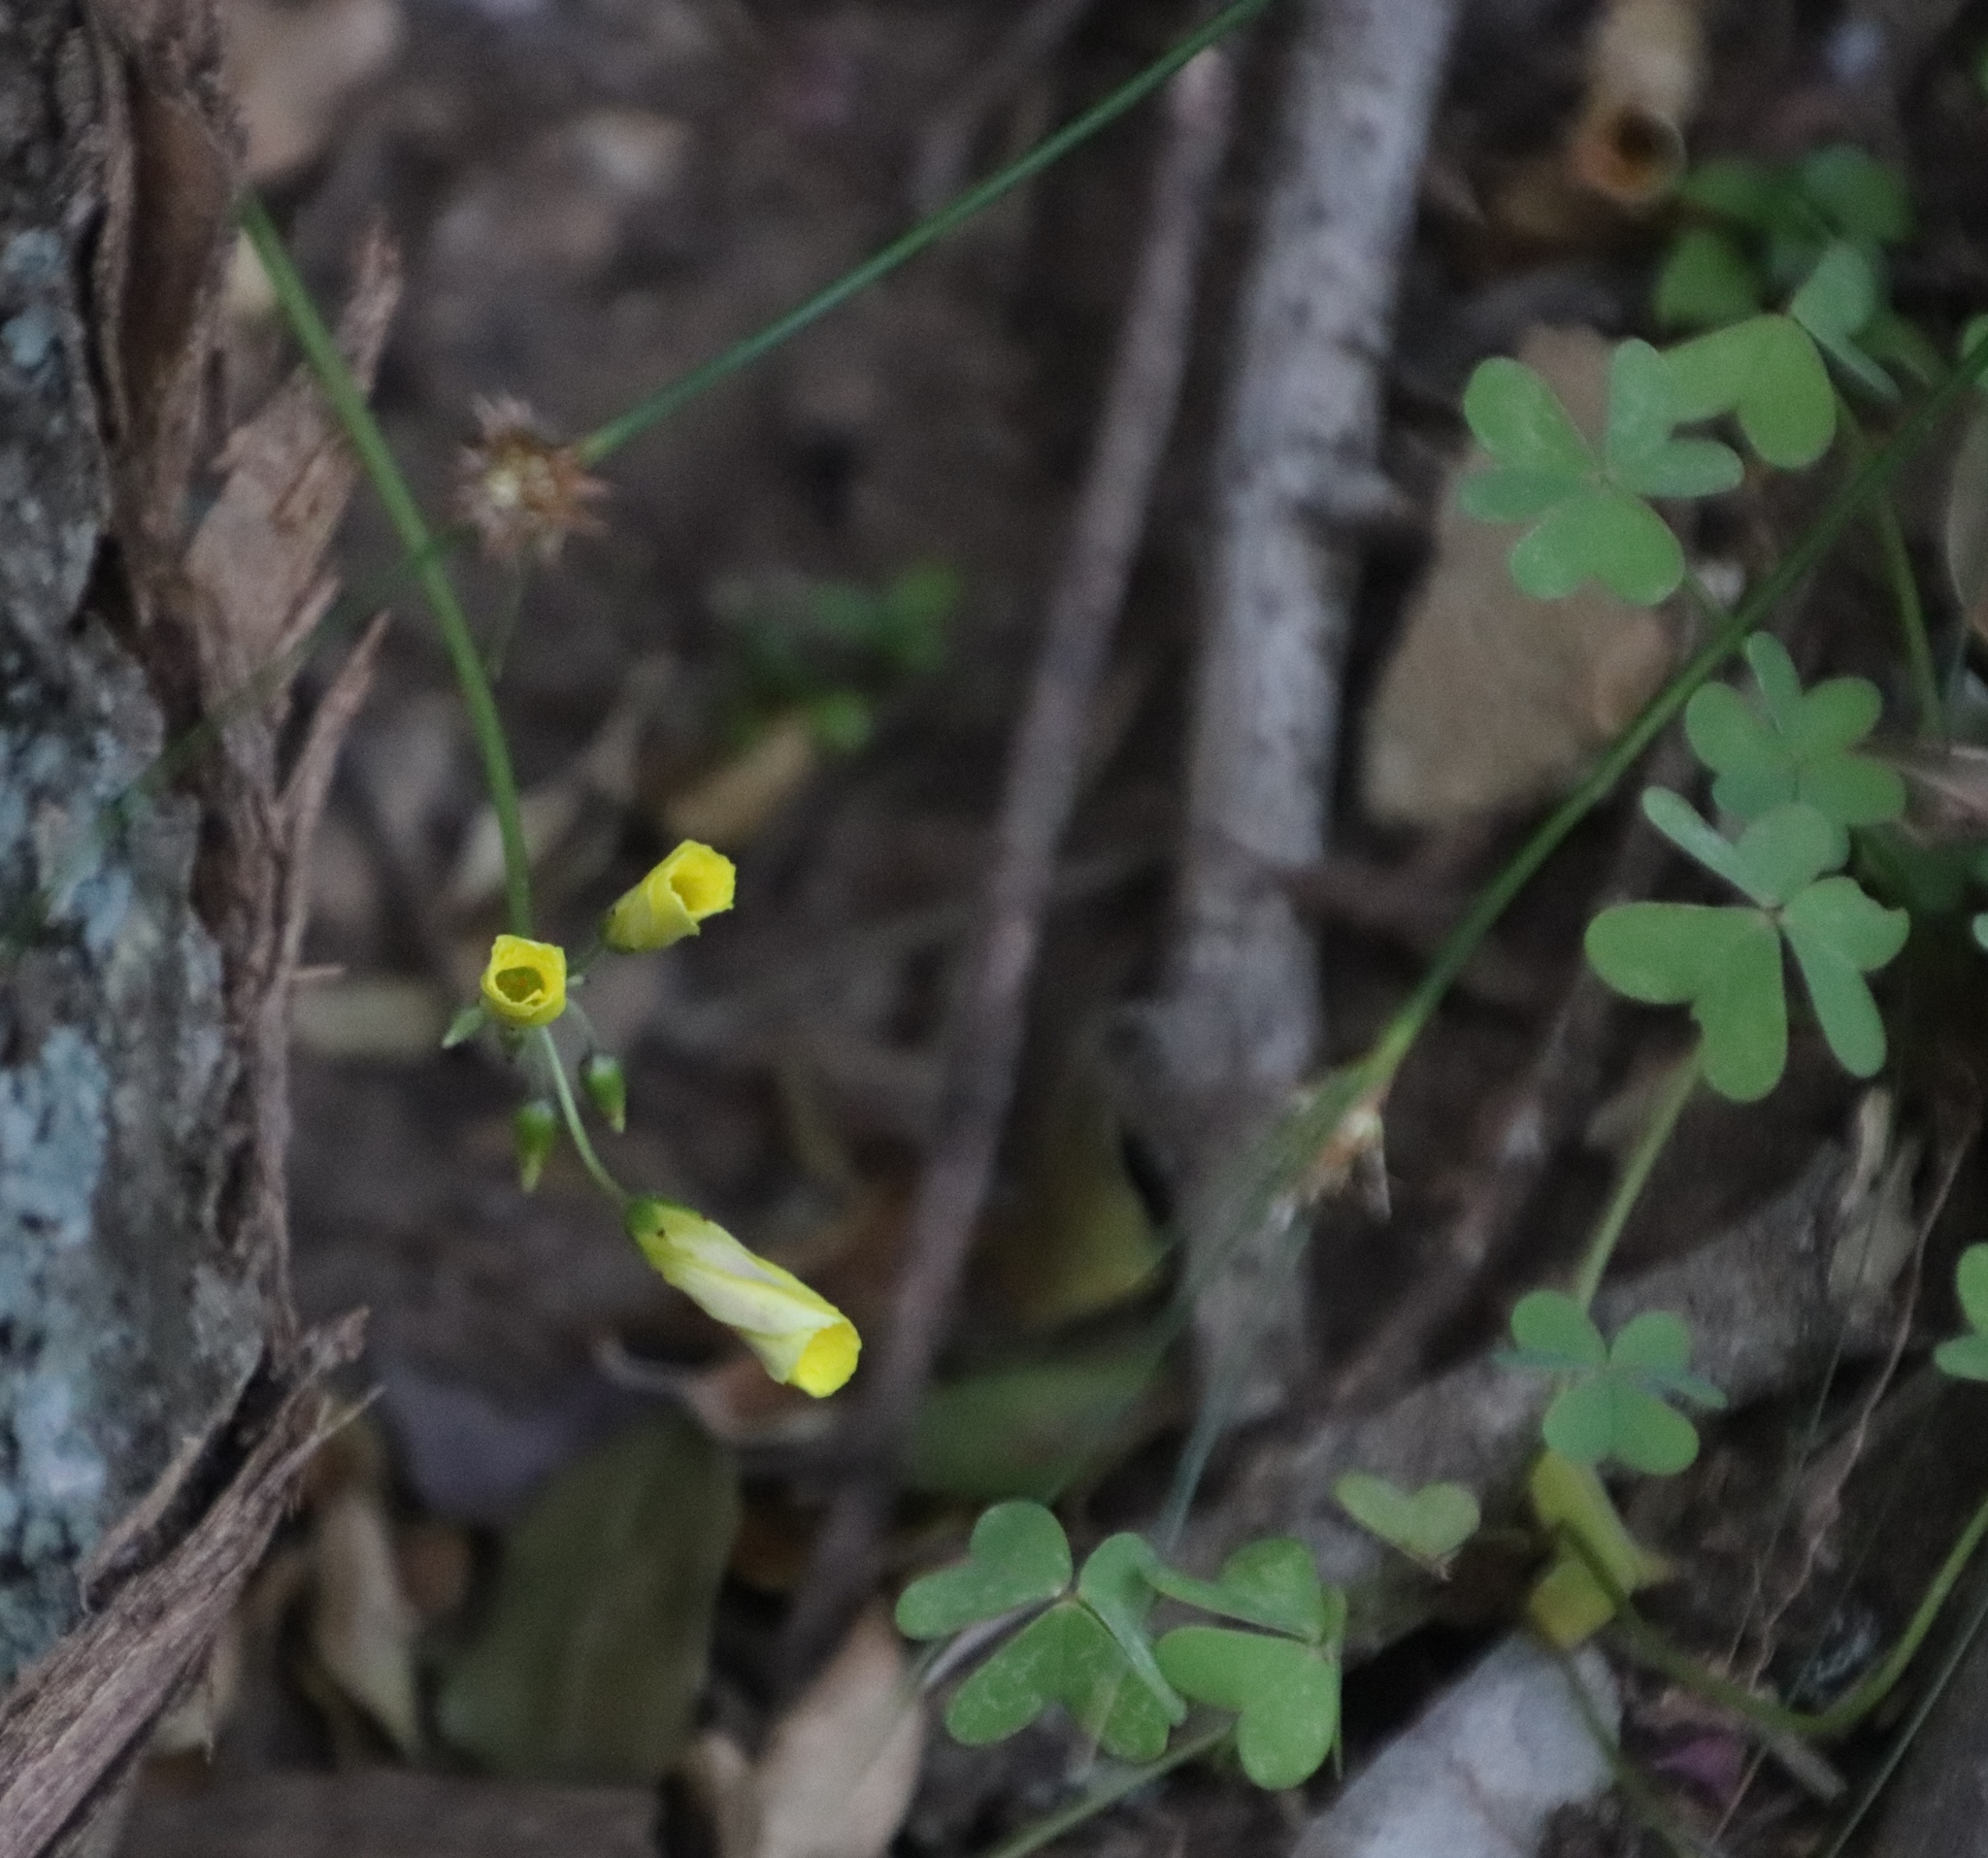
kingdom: Plantae
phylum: Tracheophyta
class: Magnoliopsida
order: Oxalidales
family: Oxalidaceae
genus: Oxalis
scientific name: Oxalis pes-caprae
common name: Bermuda-buttercup
